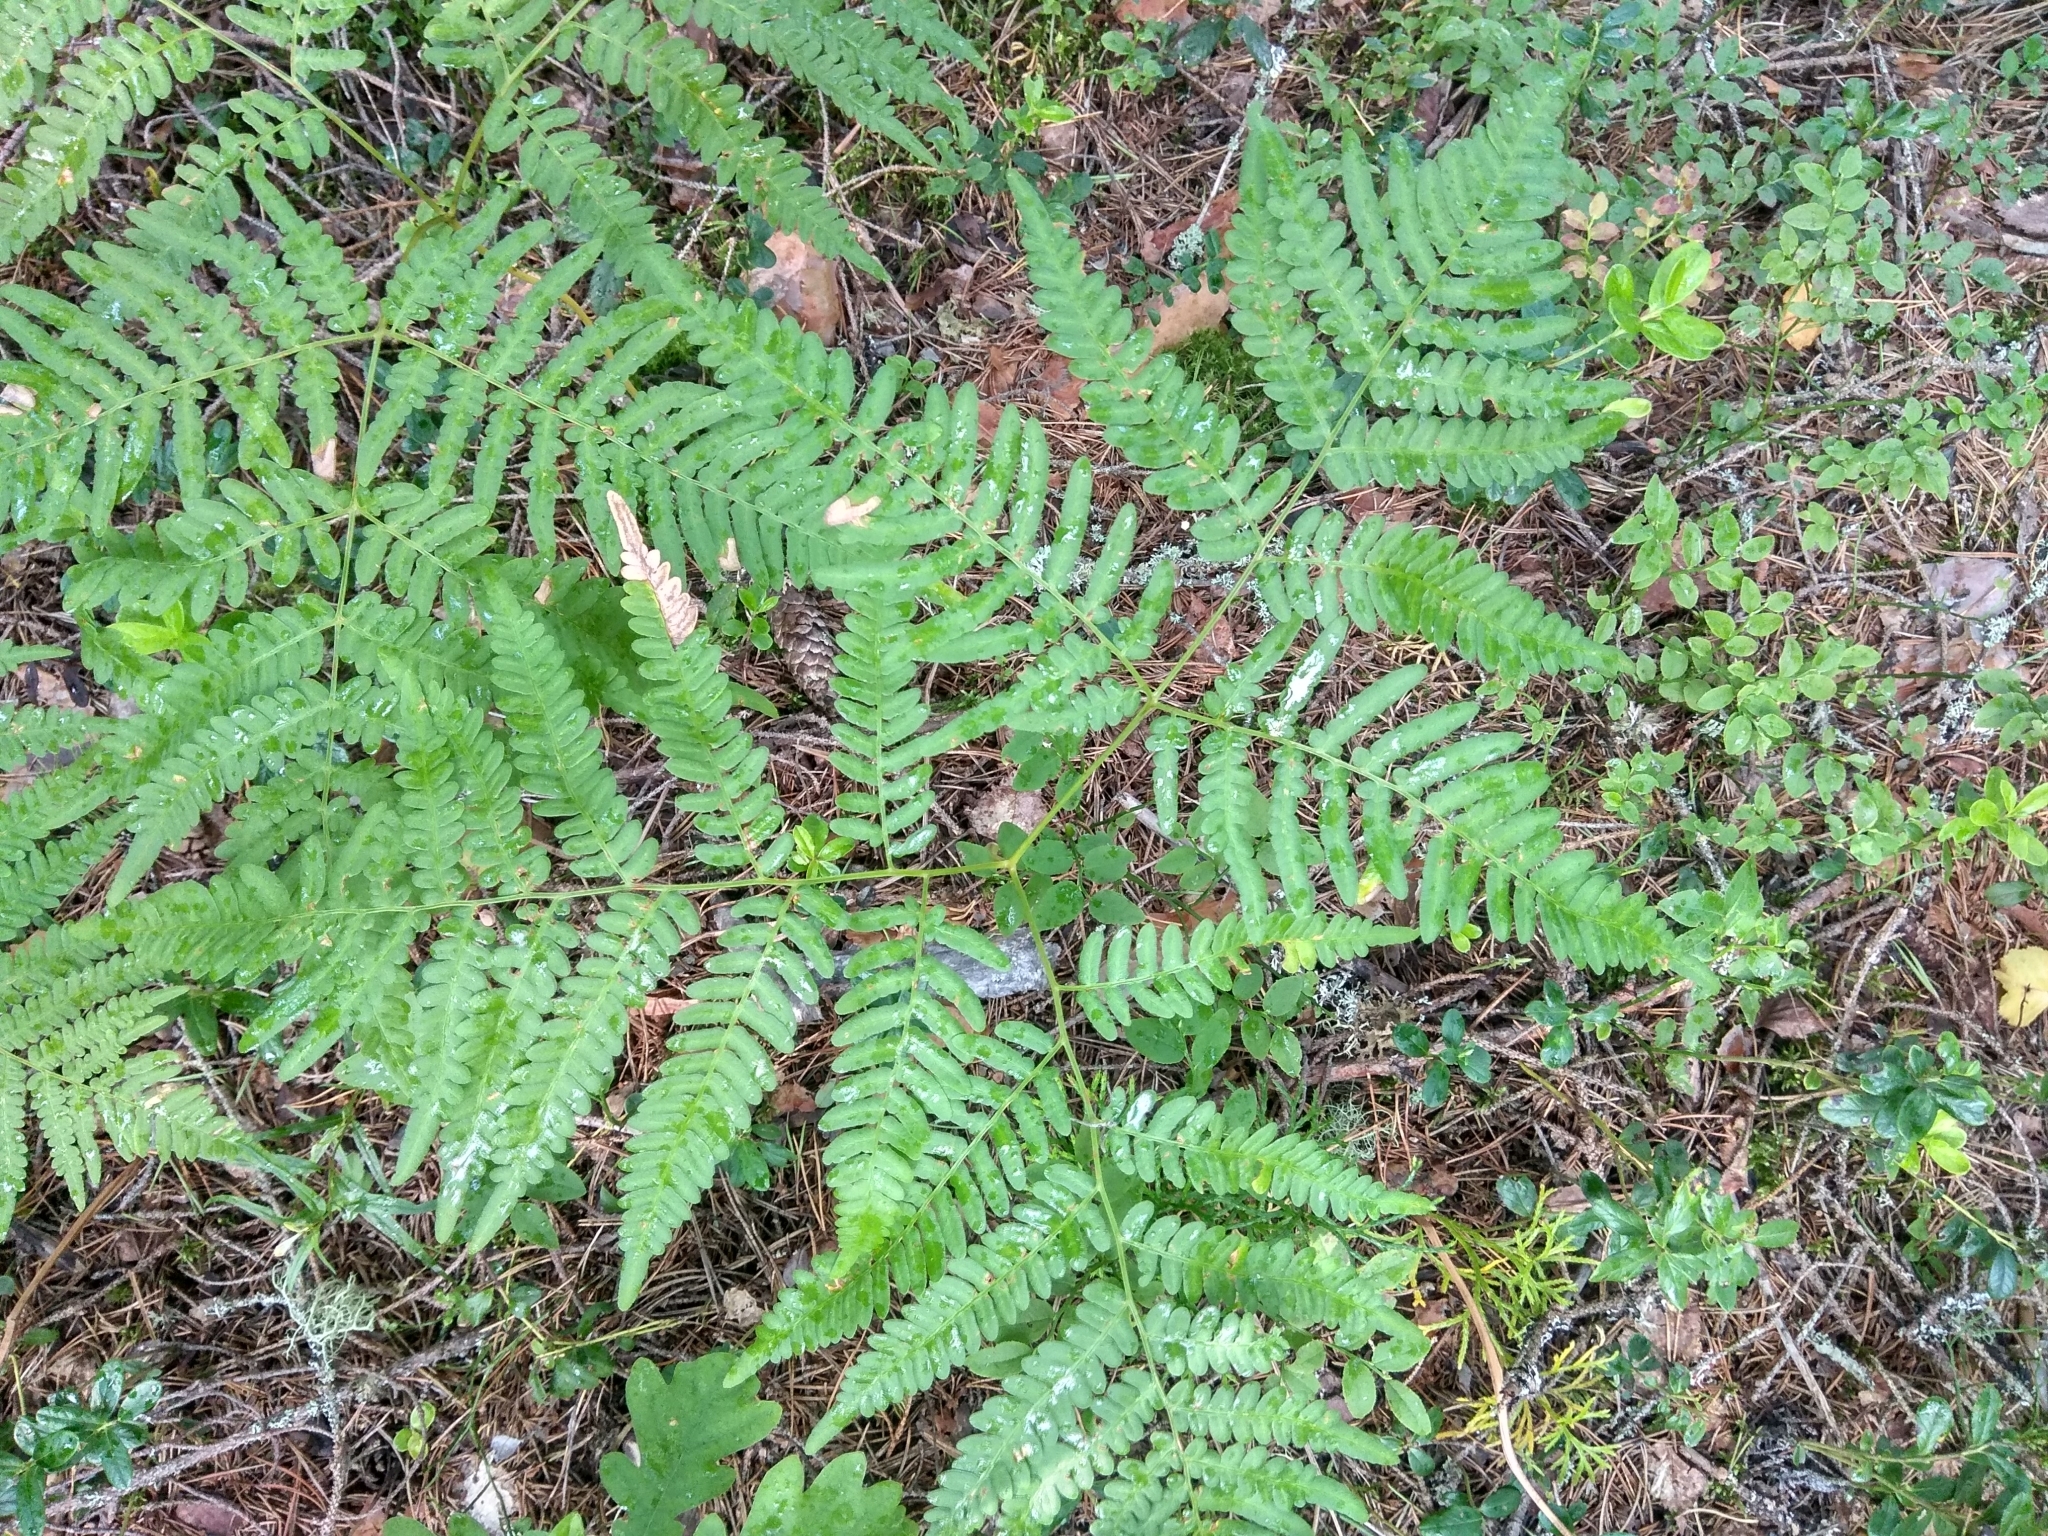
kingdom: Plantae
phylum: Tracheophyta
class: Polypodiopsida
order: Polypodiales
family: Dennstaedtiaceae
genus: Pteridium
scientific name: Pteridium aquilinum
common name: Bracken
